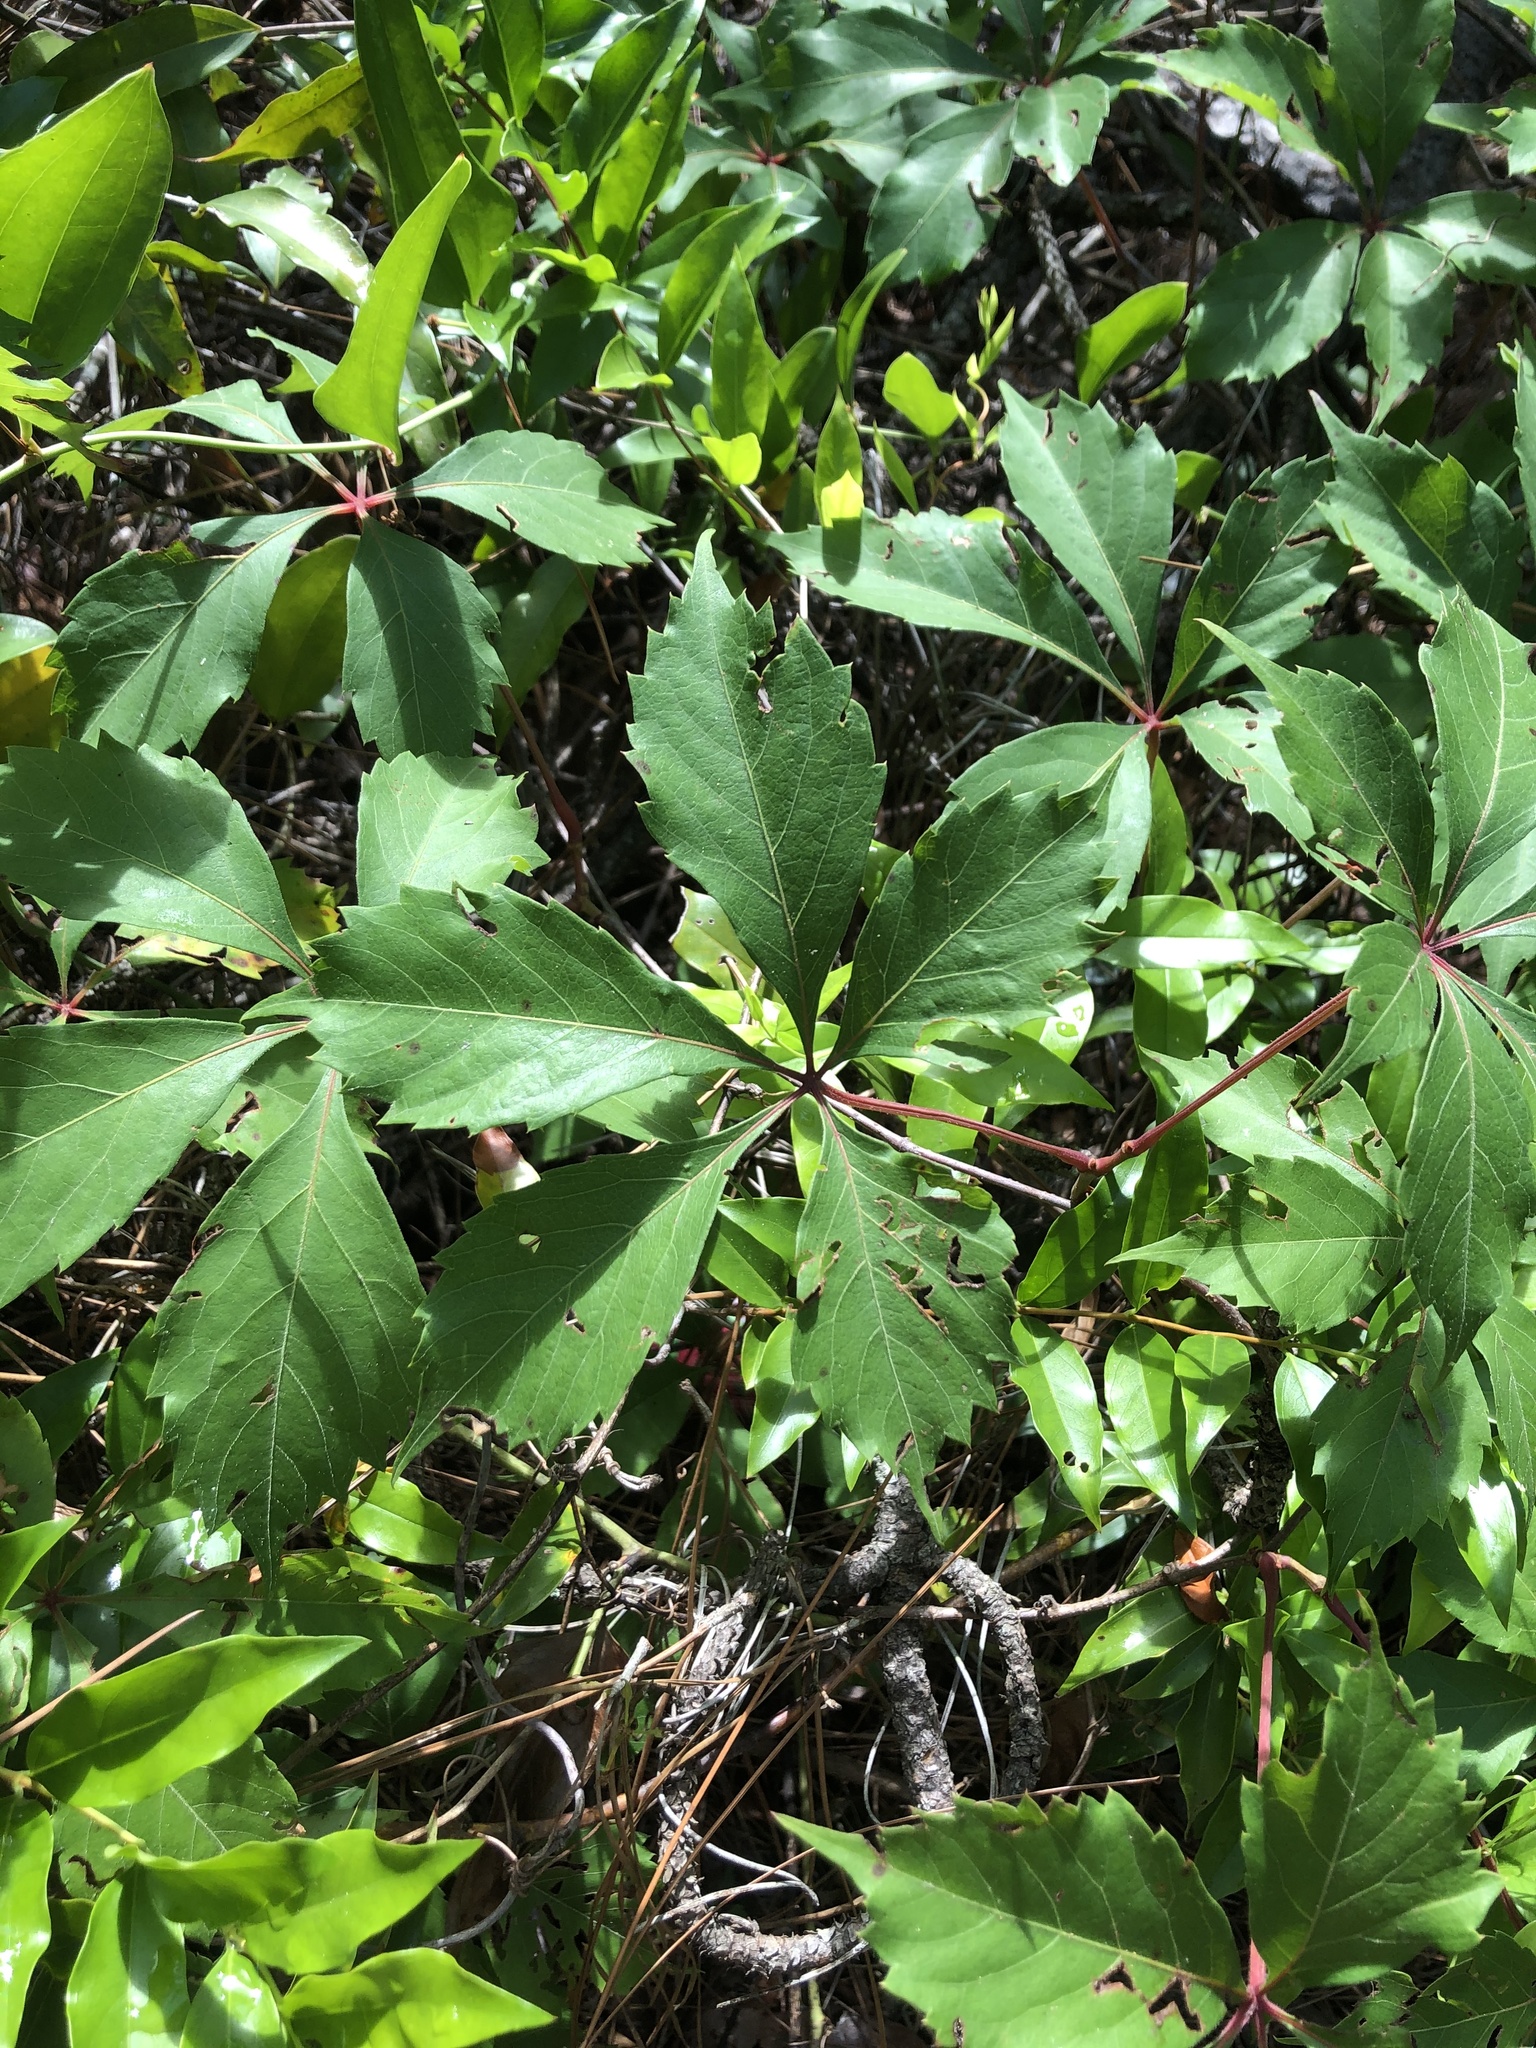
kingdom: Plantae
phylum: Tracheophyta
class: Magnoliopsida
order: Vitales
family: Vitaceae
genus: Parthenocissus
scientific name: Parthenocissus quinquefolia
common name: Virginia-creeper
